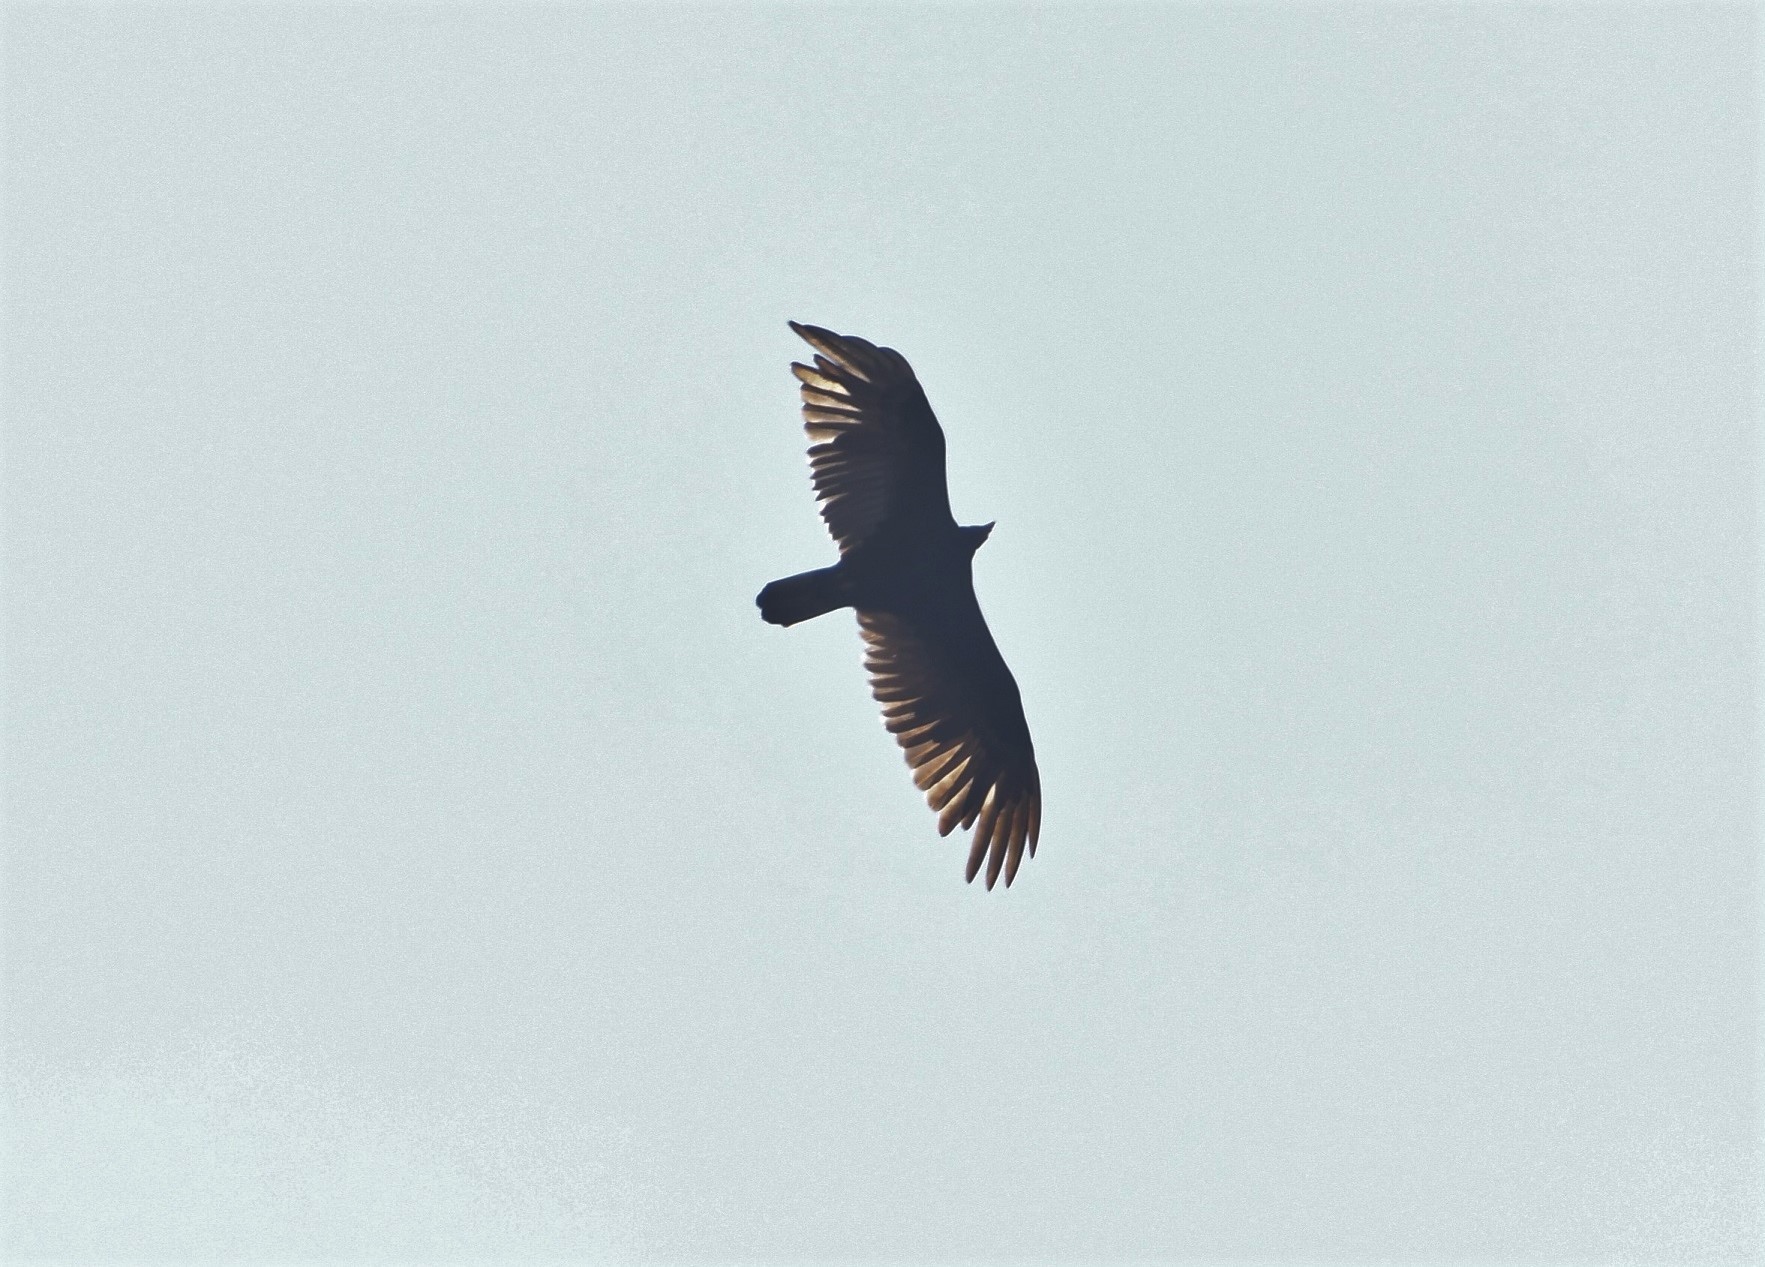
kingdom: Animalia
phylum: Chordata
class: Aves
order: Accipitriformes
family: Cathartidae
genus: Cathartes
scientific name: Cathartes aura
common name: Turkey vulture
